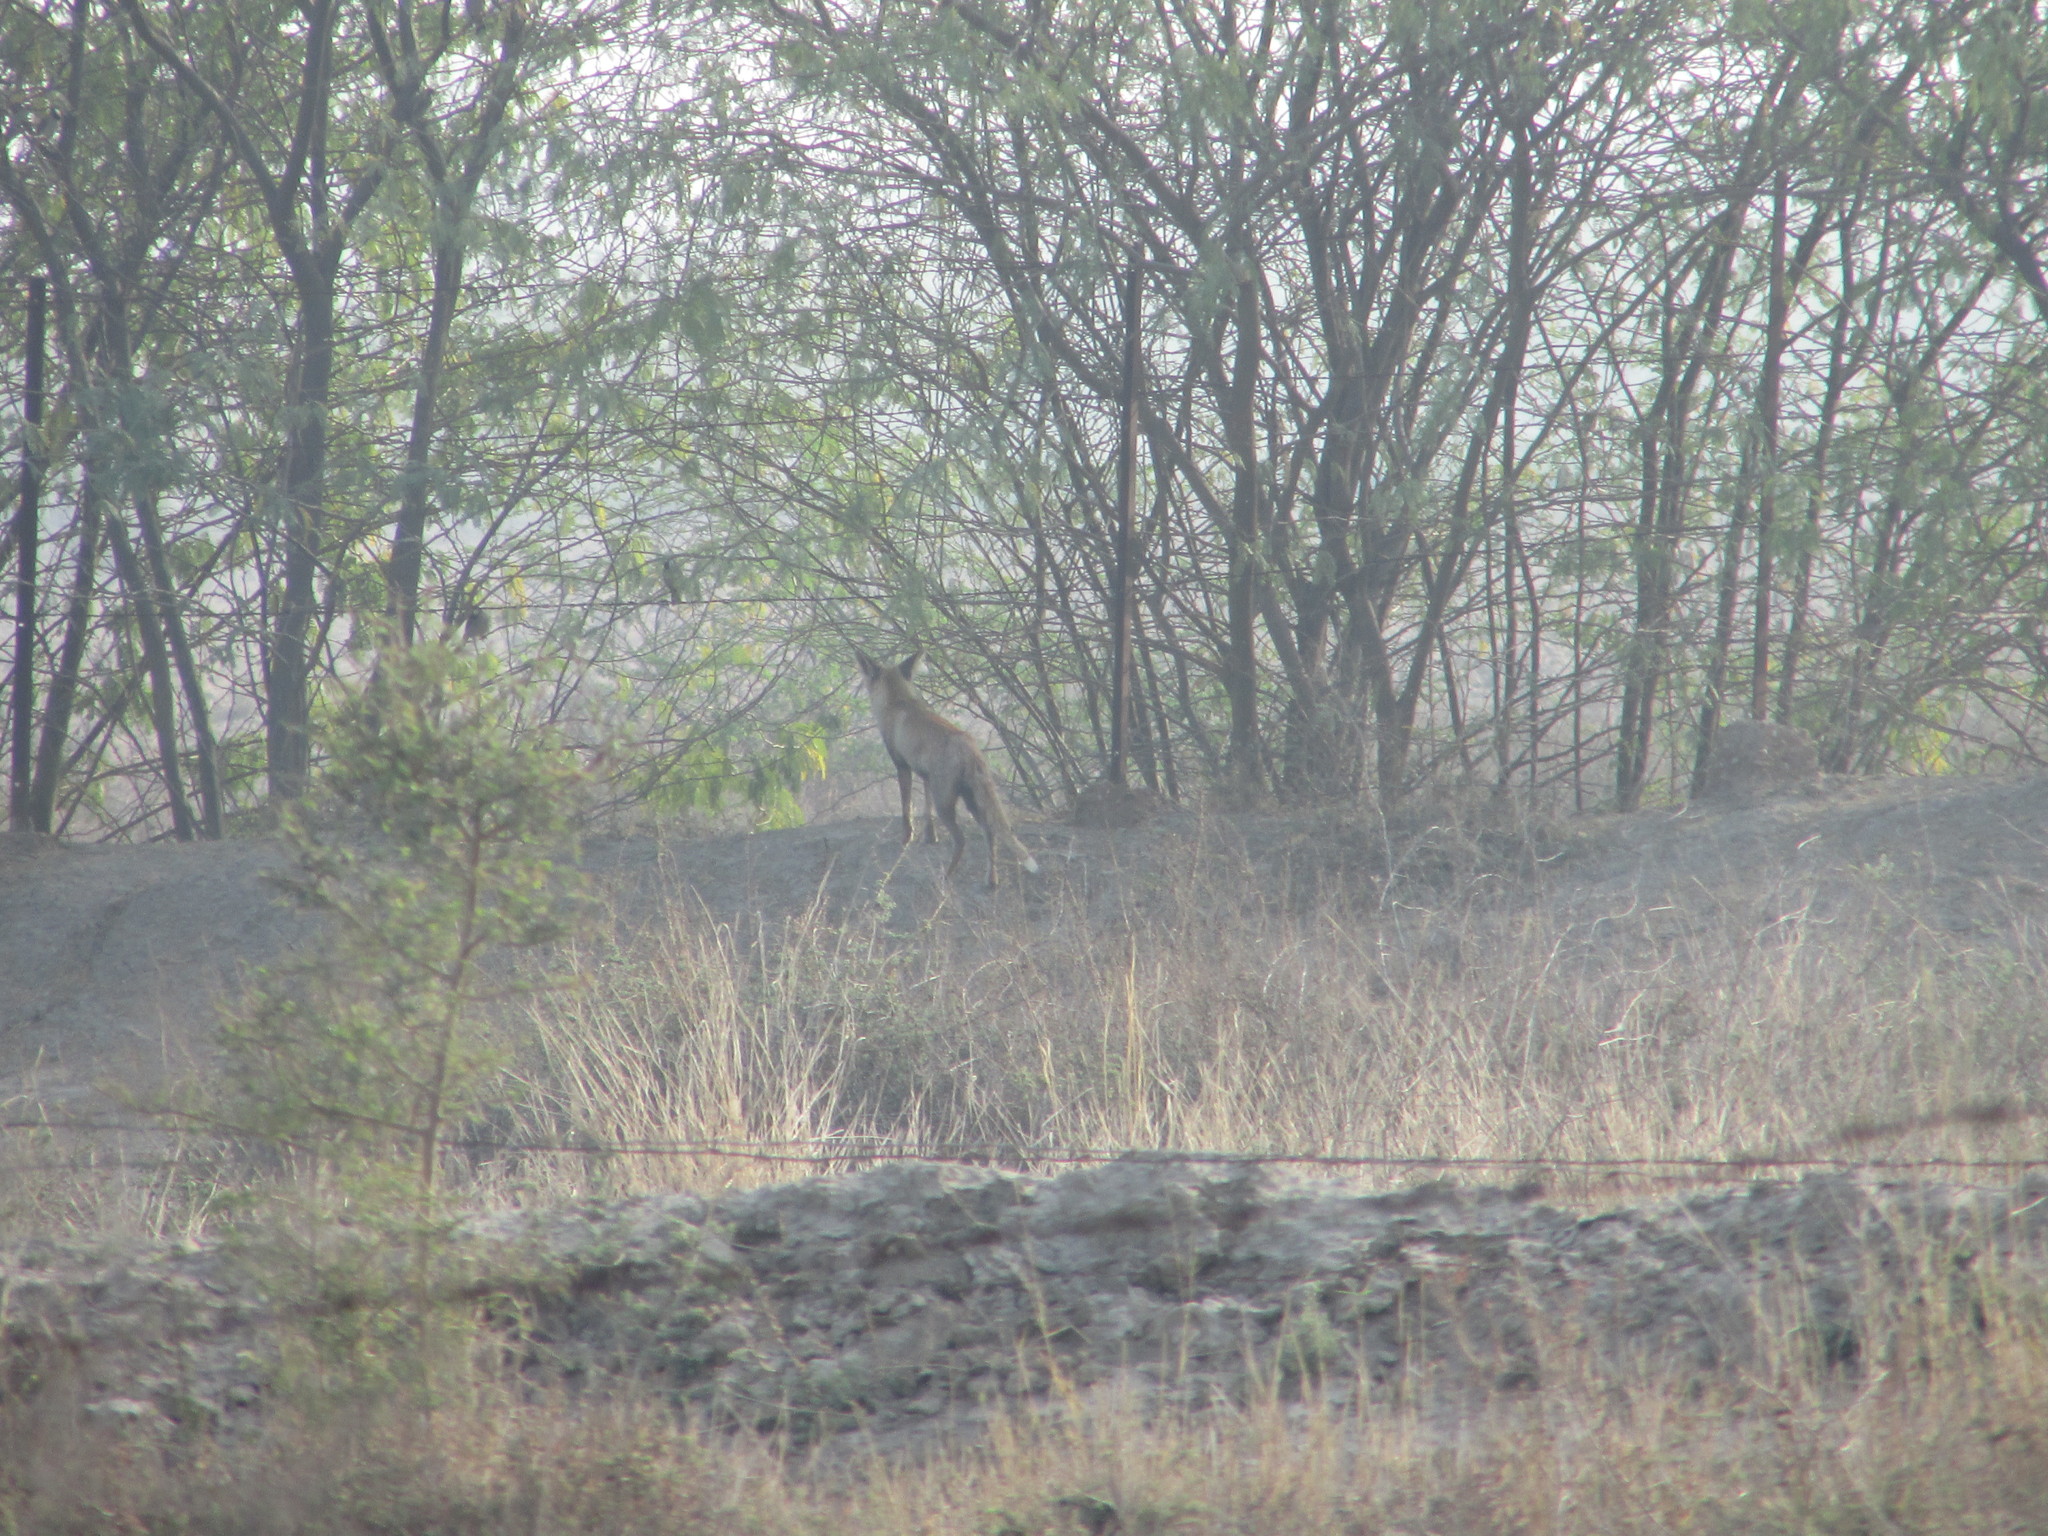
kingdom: Animalia
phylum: Chordata
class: Mammalia
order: Carnivora
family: Canidae
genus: Vulpes
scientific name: Vulpes vulpes
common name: Red fox
